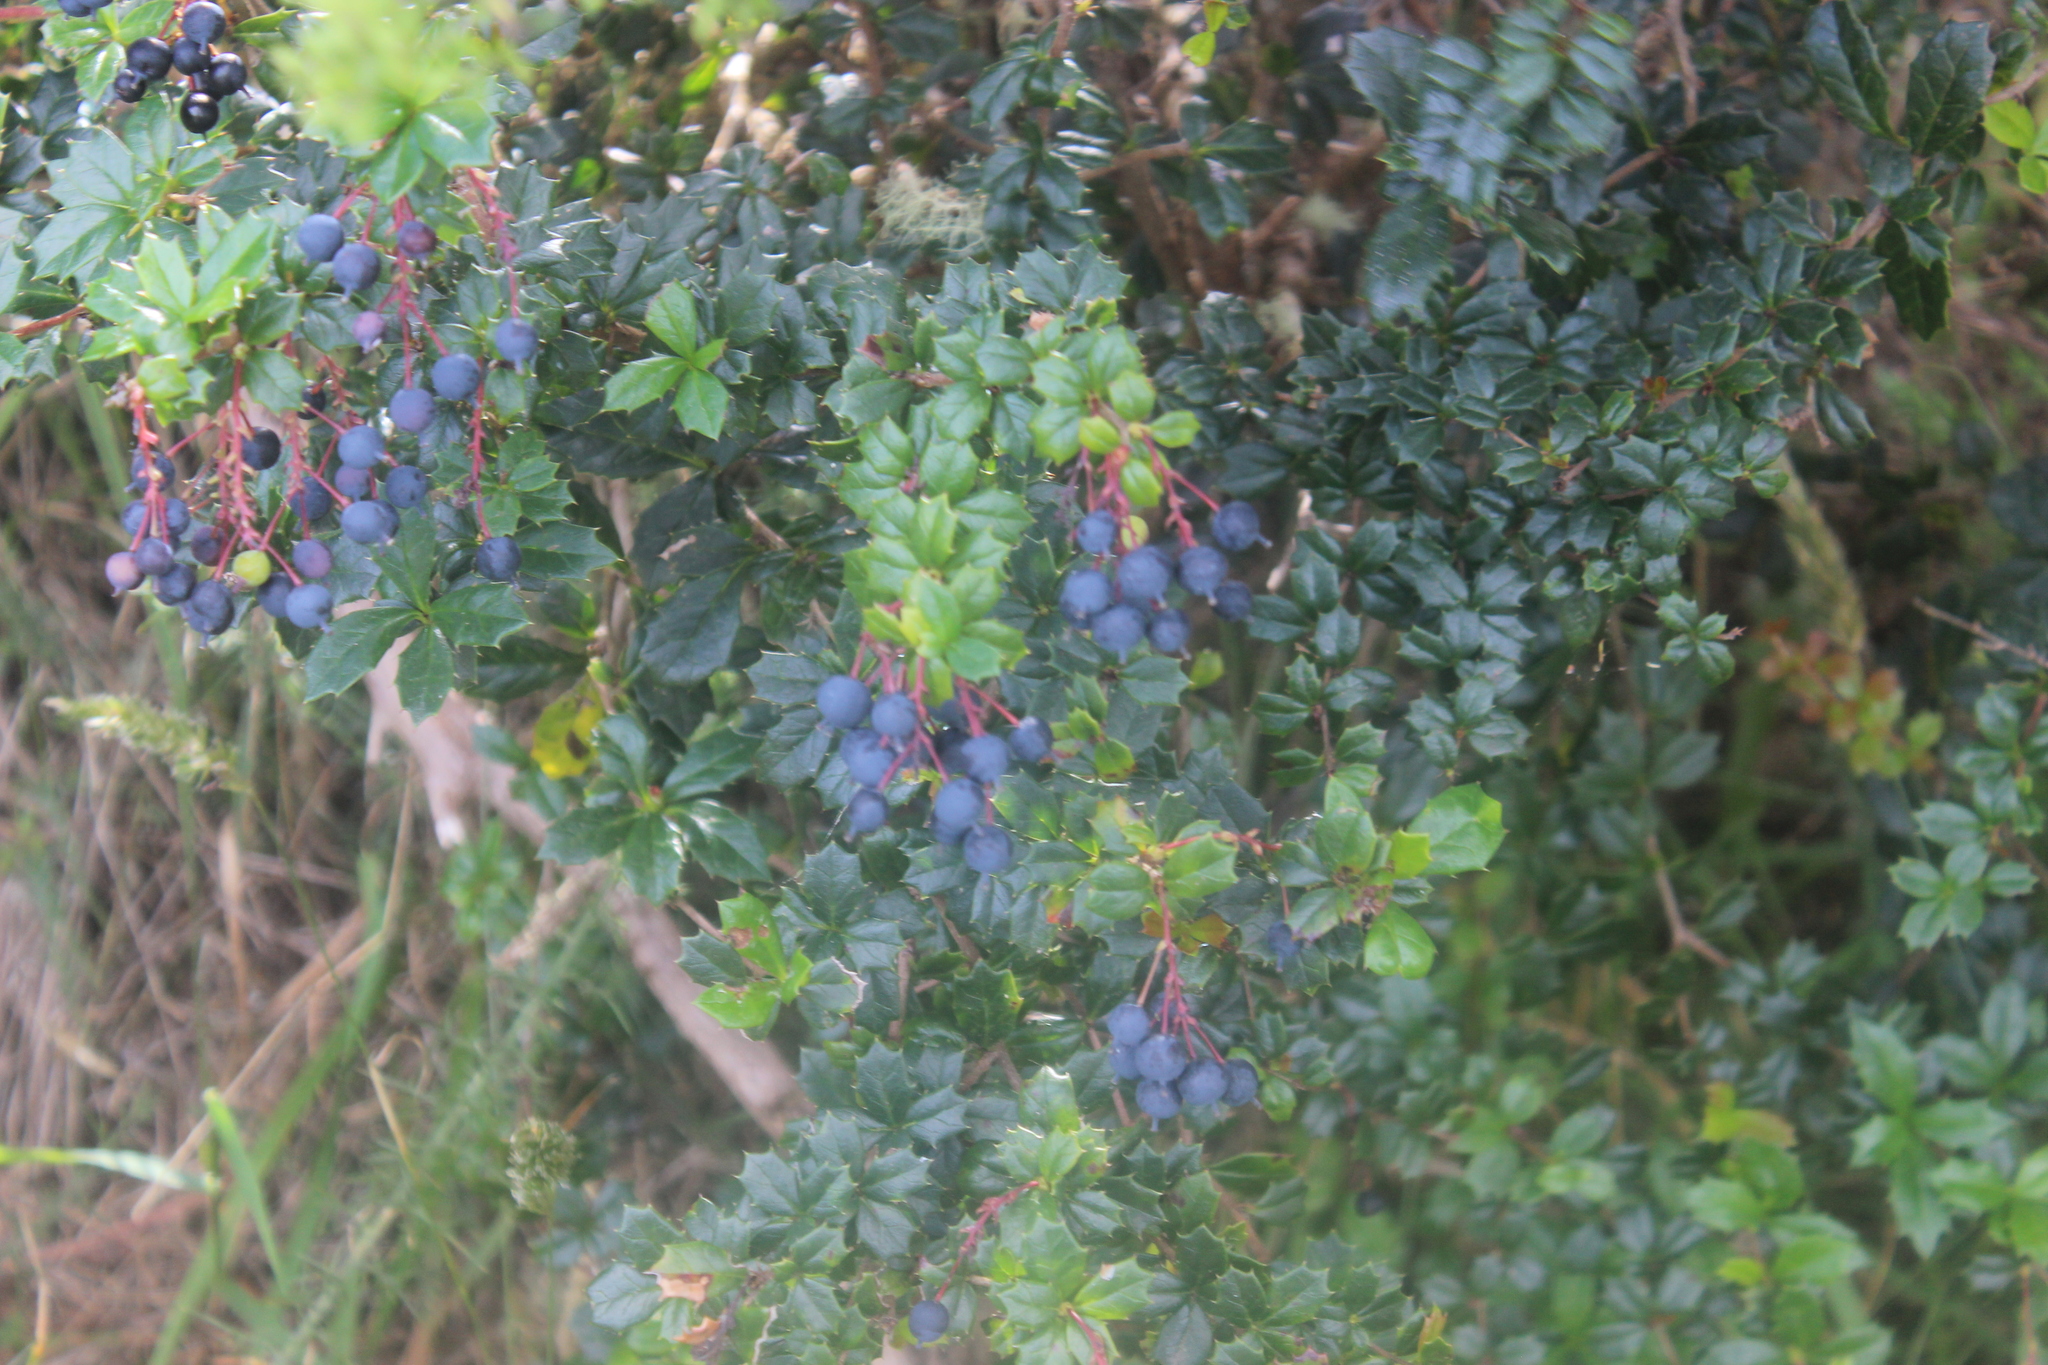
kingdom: Plantae
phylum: Tracheophyta
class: Magnoliopsida
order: Ranunculales
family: Berberidaceae
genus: Berberis
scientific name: Berberis darwinii
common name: Darwin's barberry
